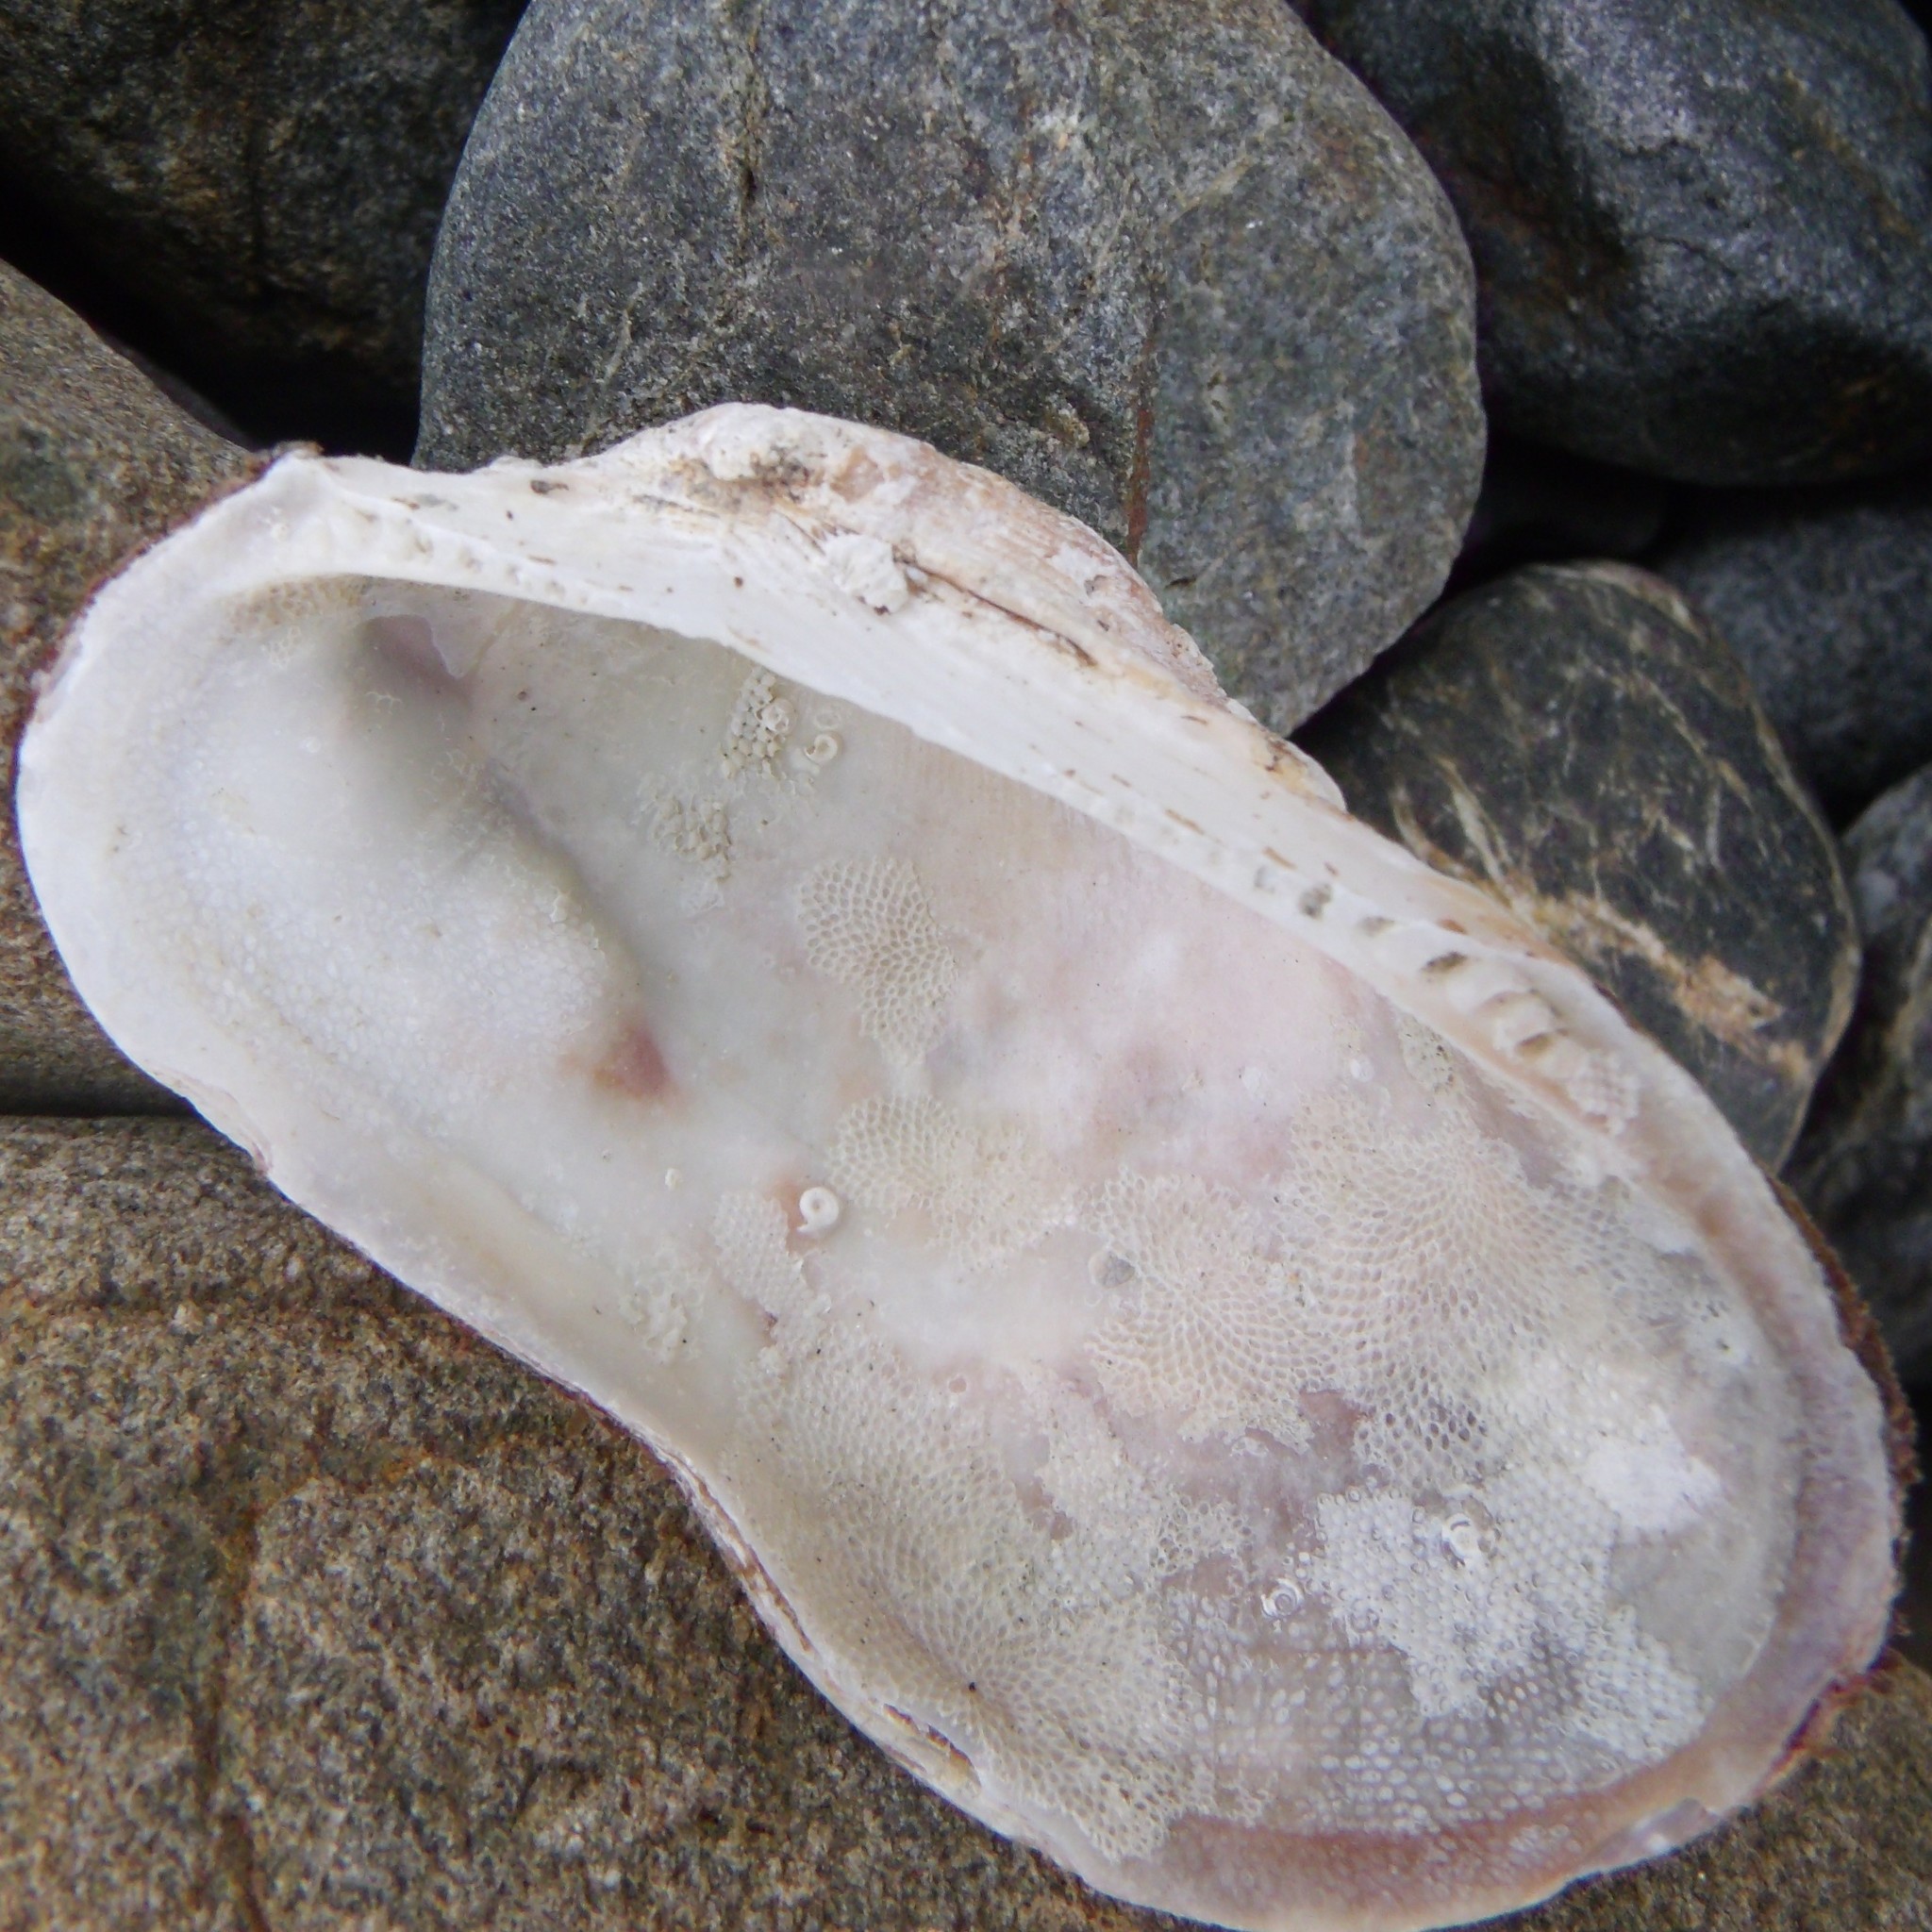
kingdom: Animalia
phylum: Mollusca
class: Bivalvia
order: Arcida
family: Arcidae
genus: Barbatia
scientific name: Barbatia novaezealandiae
